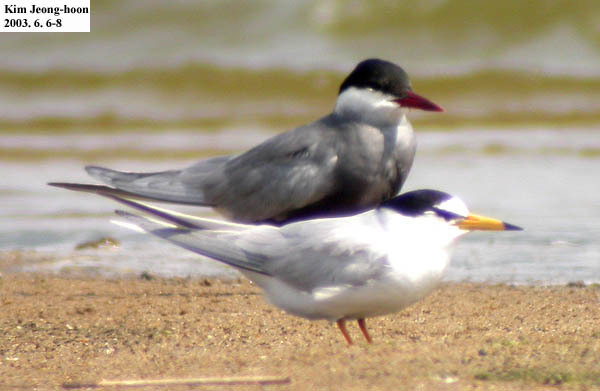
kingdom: Animalia
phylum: Chordata
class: Aves
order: Charadriiformes
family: Laridae
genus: Chlidonias
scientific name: Chlidonias hybrida
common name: Whiskered tern
